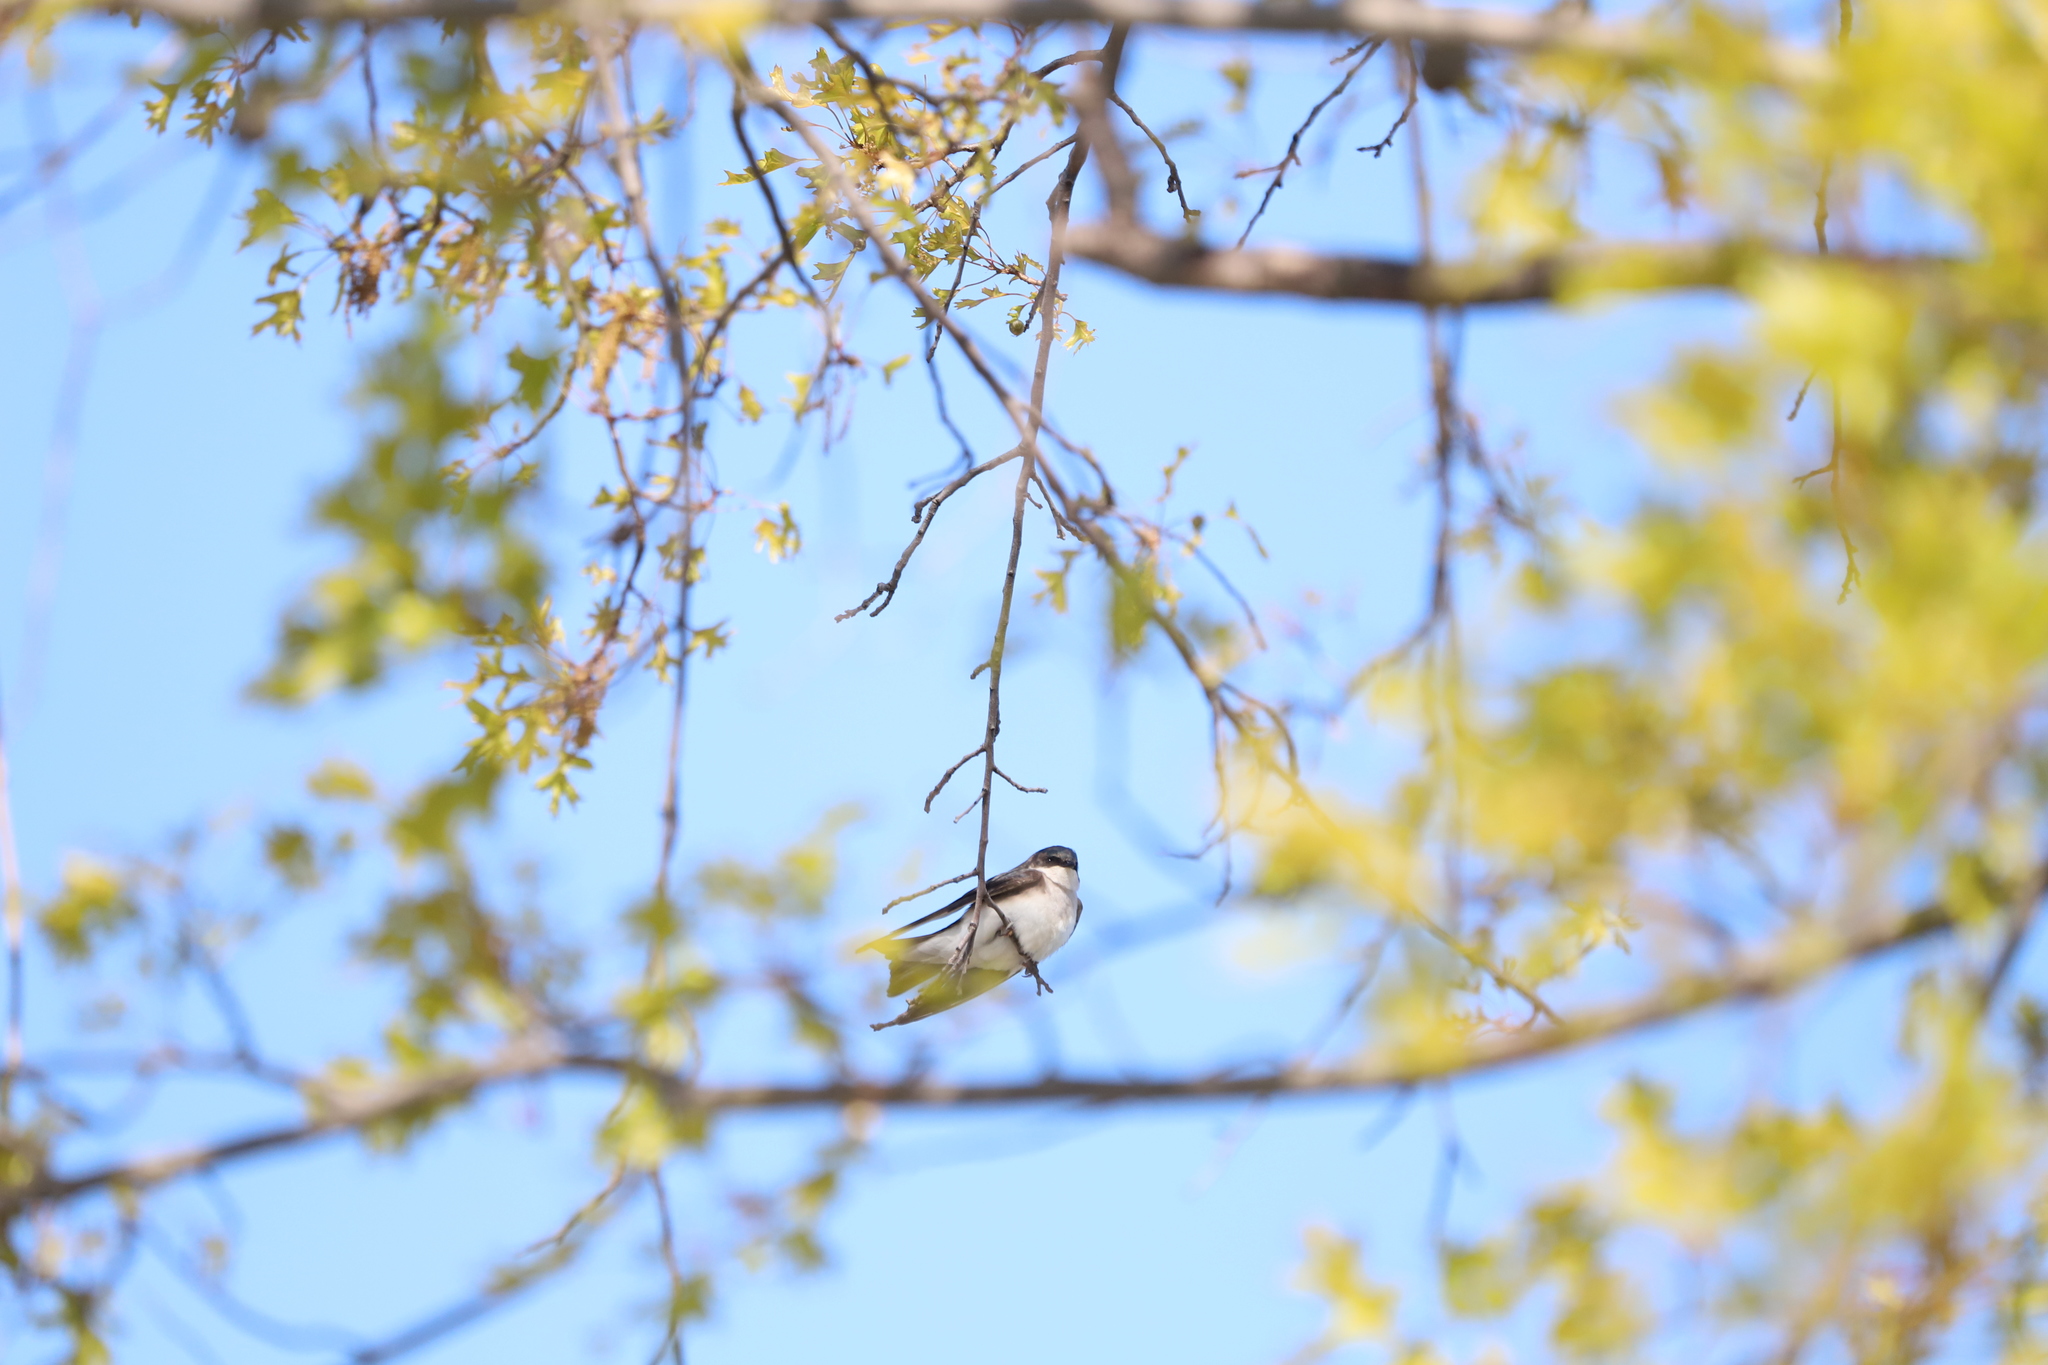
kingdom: Animalia
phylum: Chordata
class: Aves
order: Passeriformes
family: Hirundinidae
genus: Tachycineta
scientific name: Tachycineta bicolor
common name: Tree swallow
